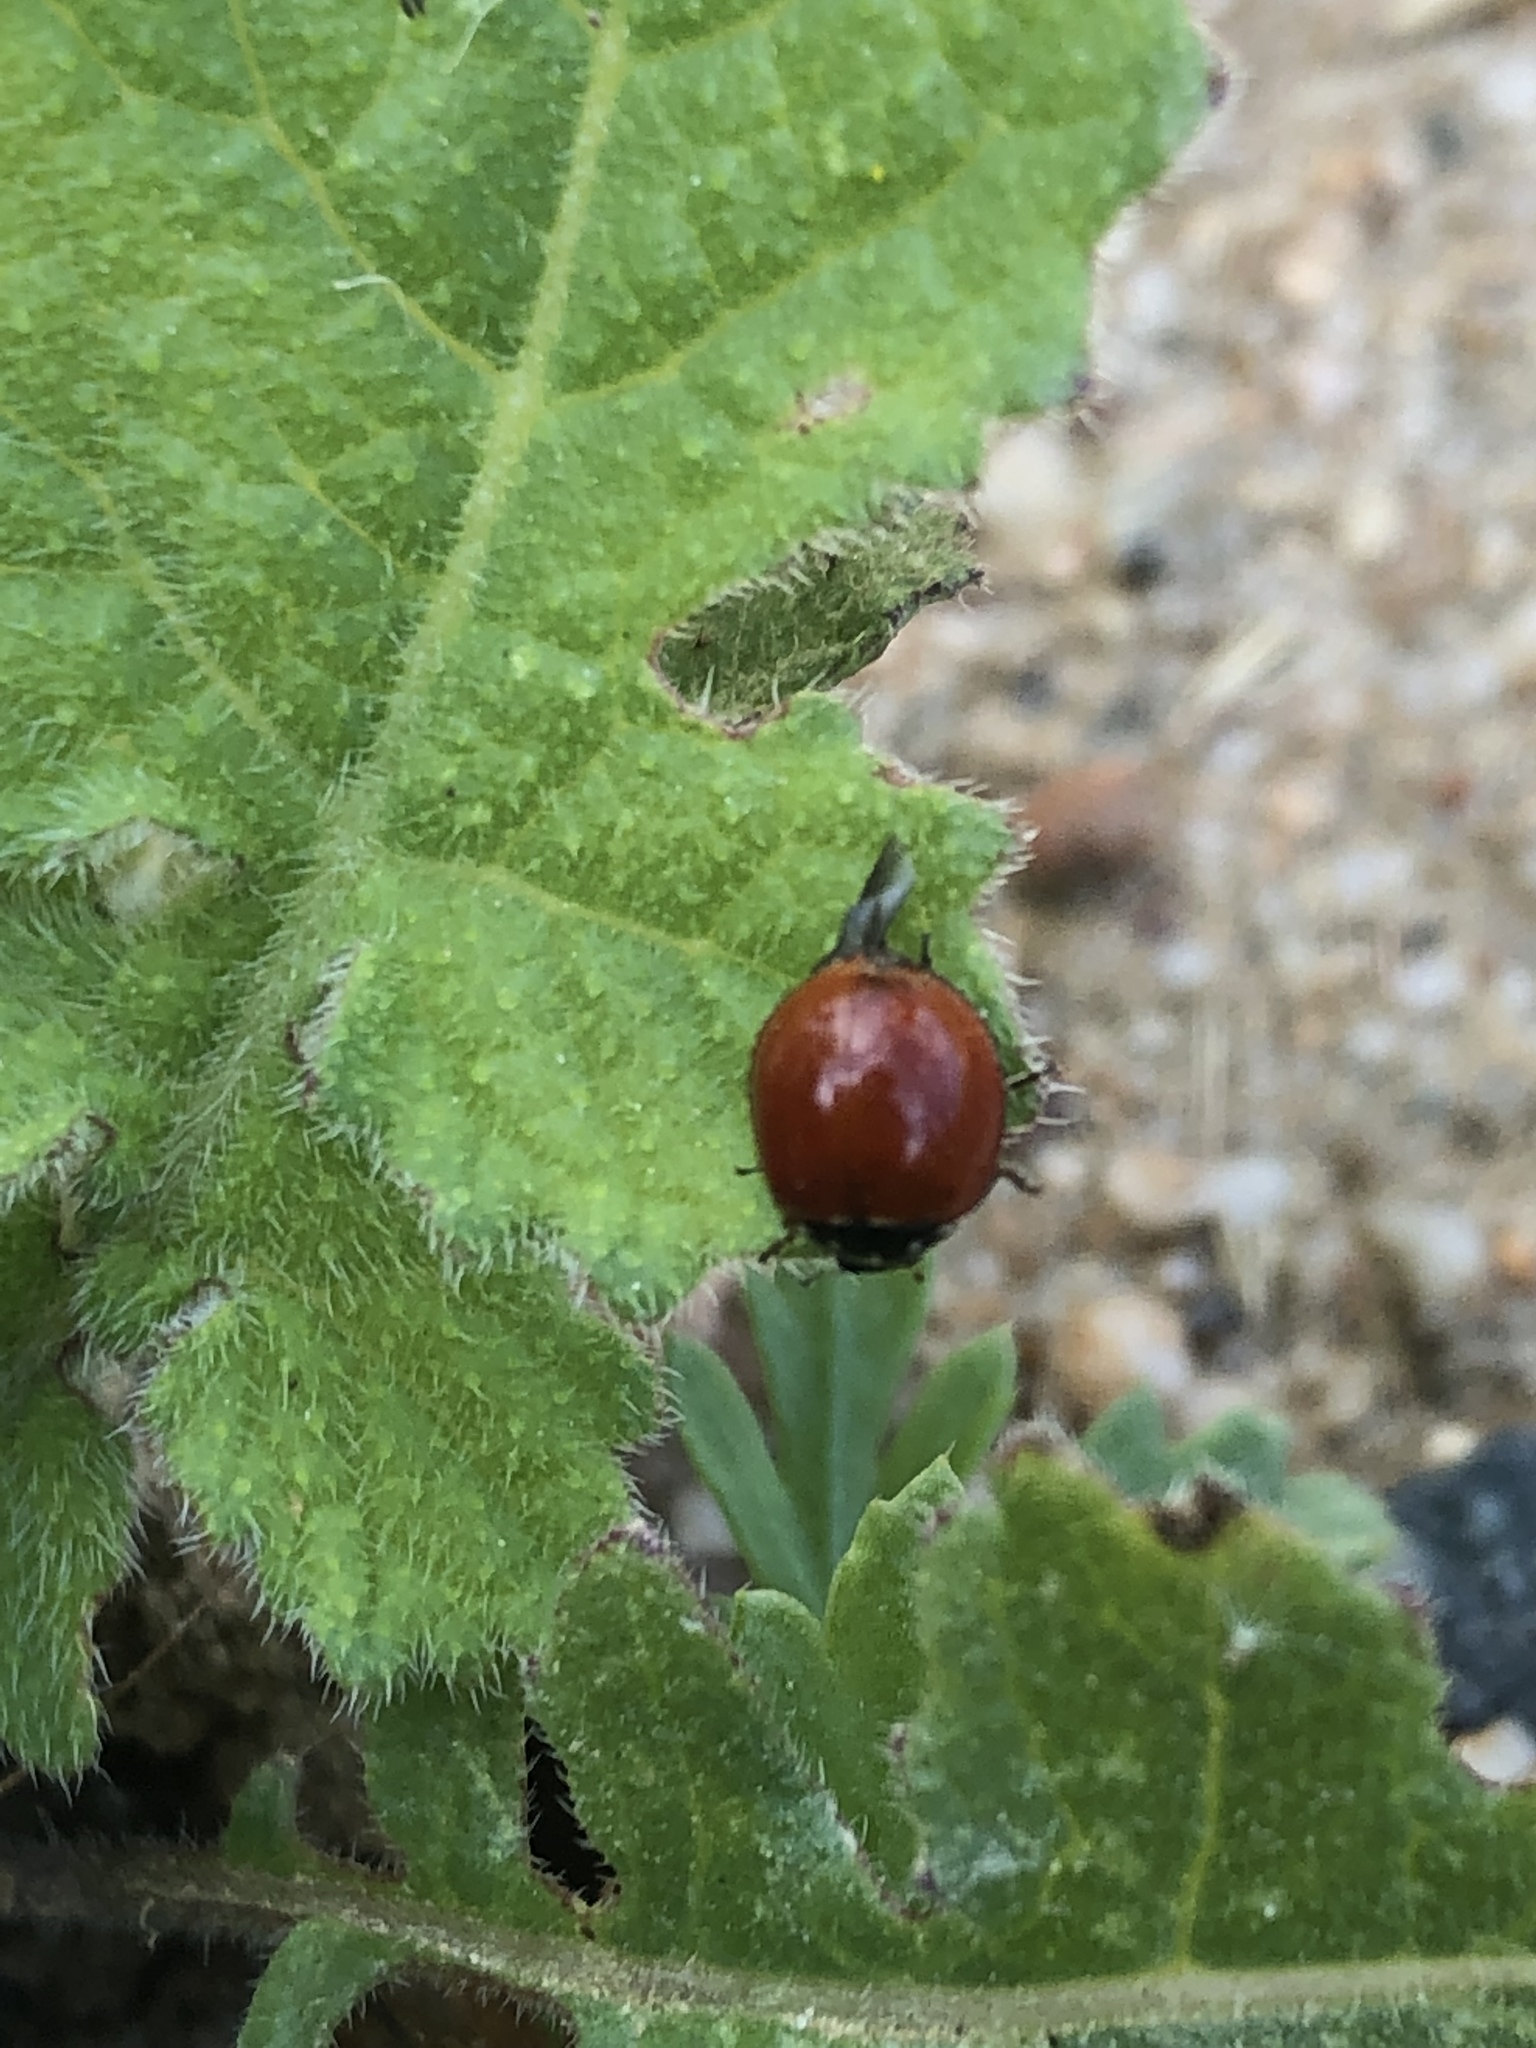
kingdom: Animalia
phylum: Arthropoda
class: Insecta
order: Coleoptera
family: Coccinellidae
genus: Cycloneda
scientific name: Cycloneda sanguinea
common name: Ladybird beetle
